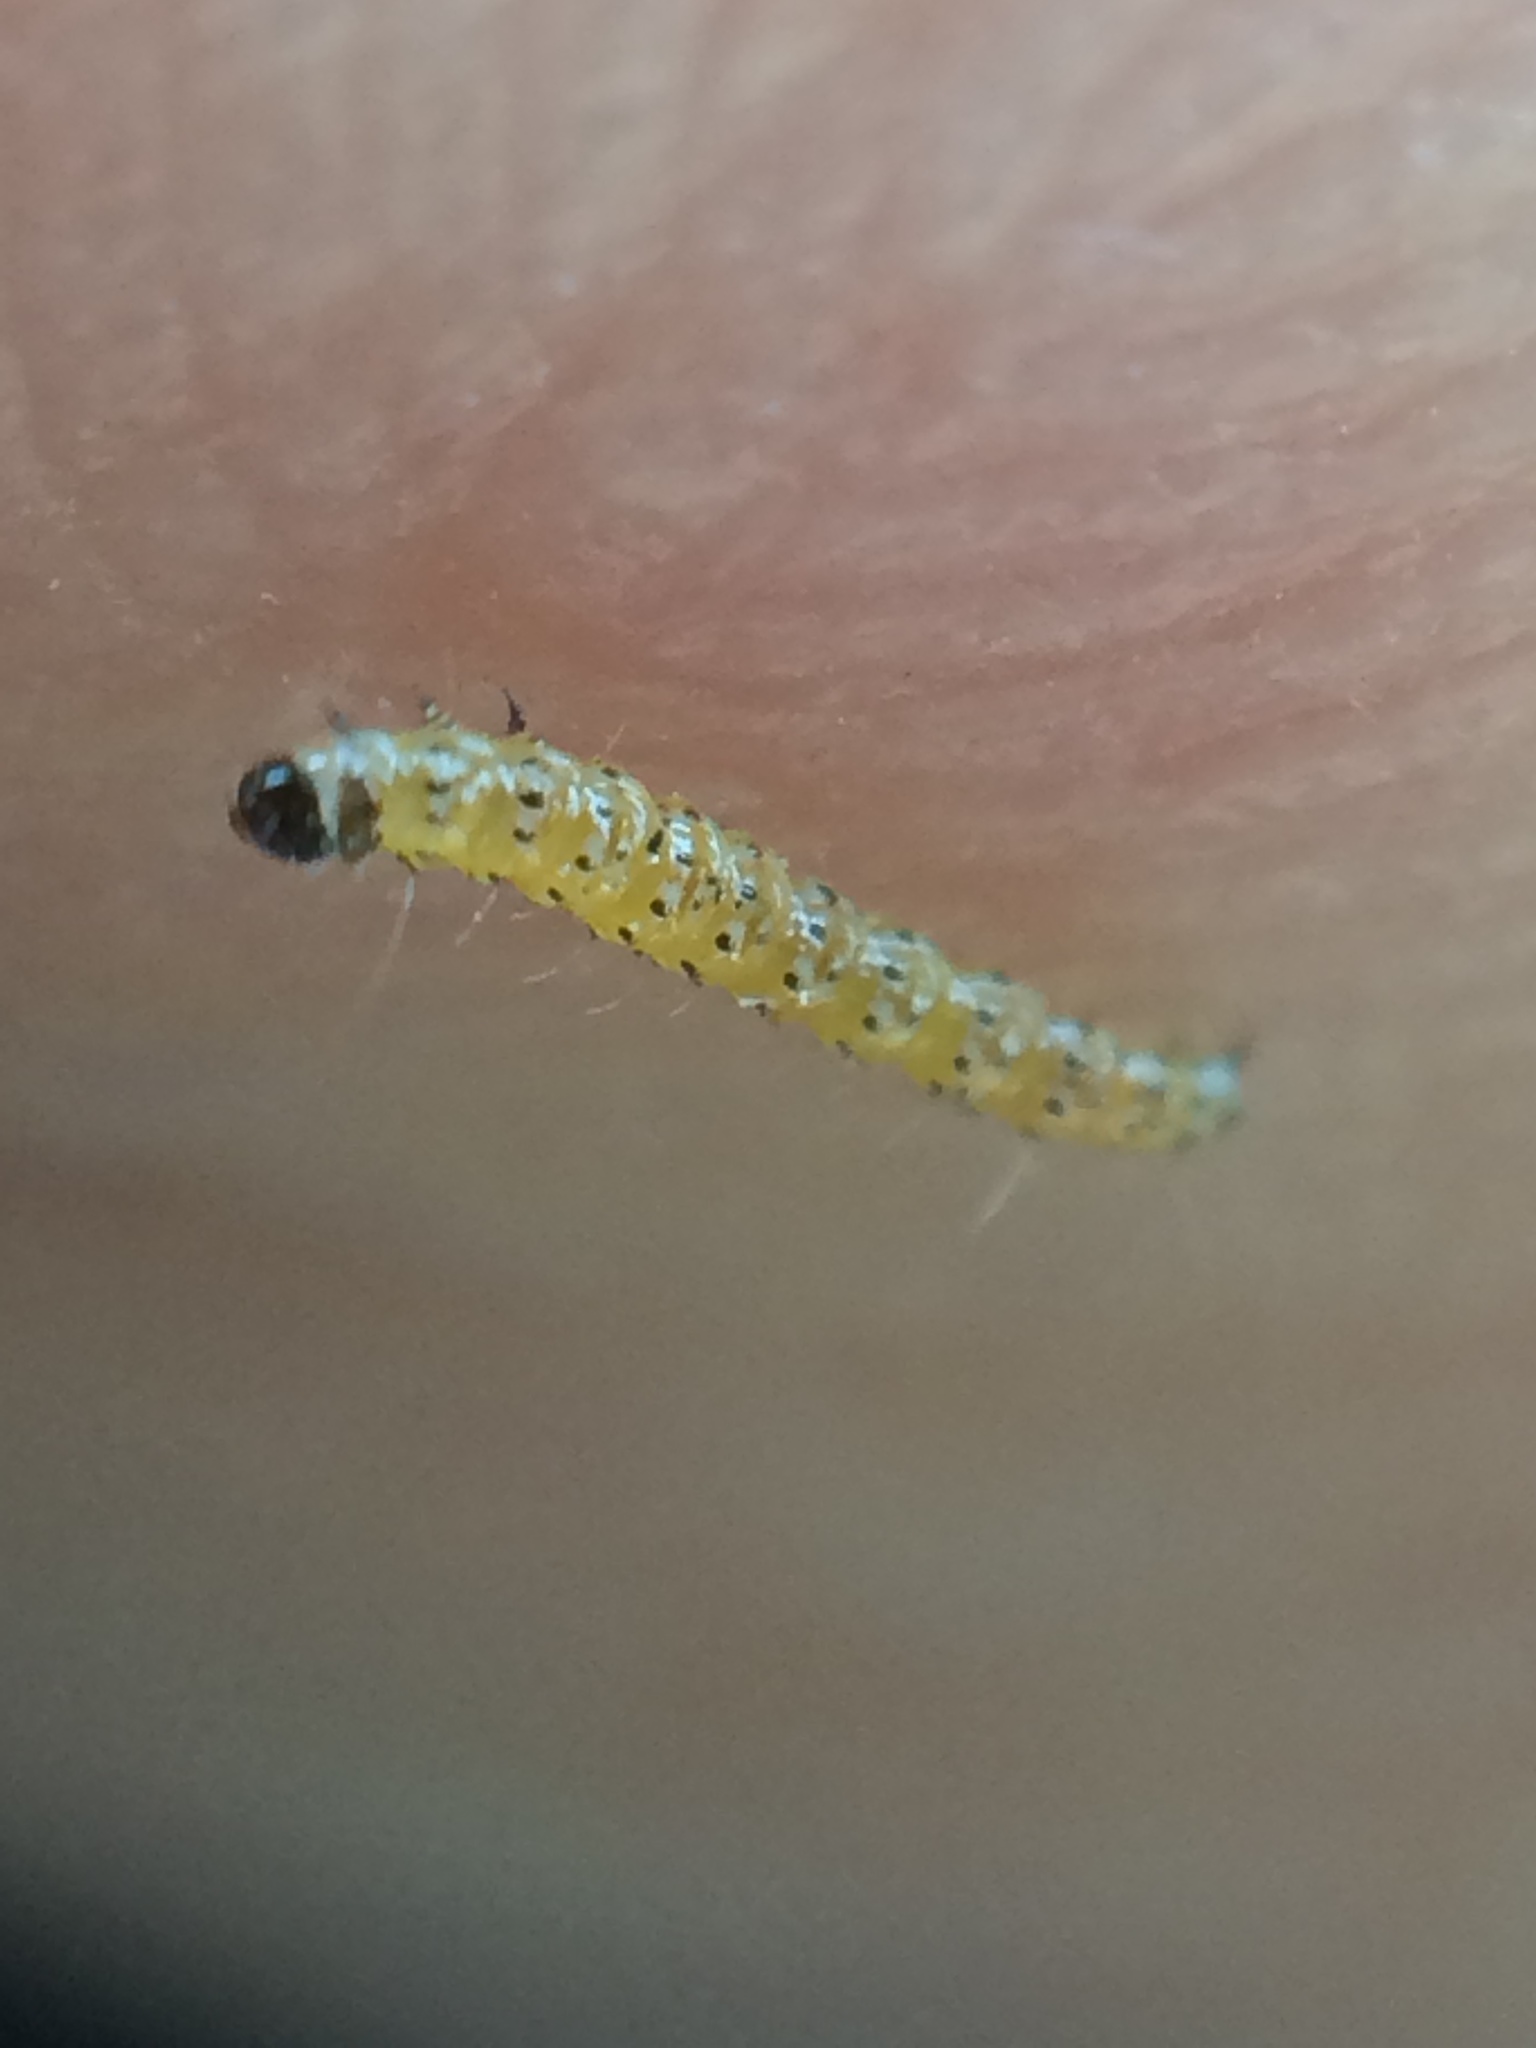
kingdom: Animalia
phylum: Arthropoda
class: Insecta
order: Lepidoptera
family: Crambidae
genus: Uresiphita
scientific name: Uresiphita reversalis
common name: Genista broom moth
